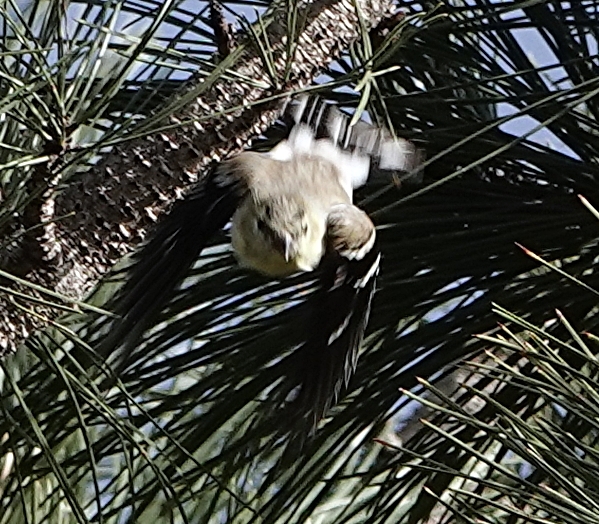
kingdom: Animalia
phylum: Chordata
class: Aves
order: Passeriformes
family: Fringillidae
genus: Spinus
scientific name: Spinus tristis
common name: American goldfinch
